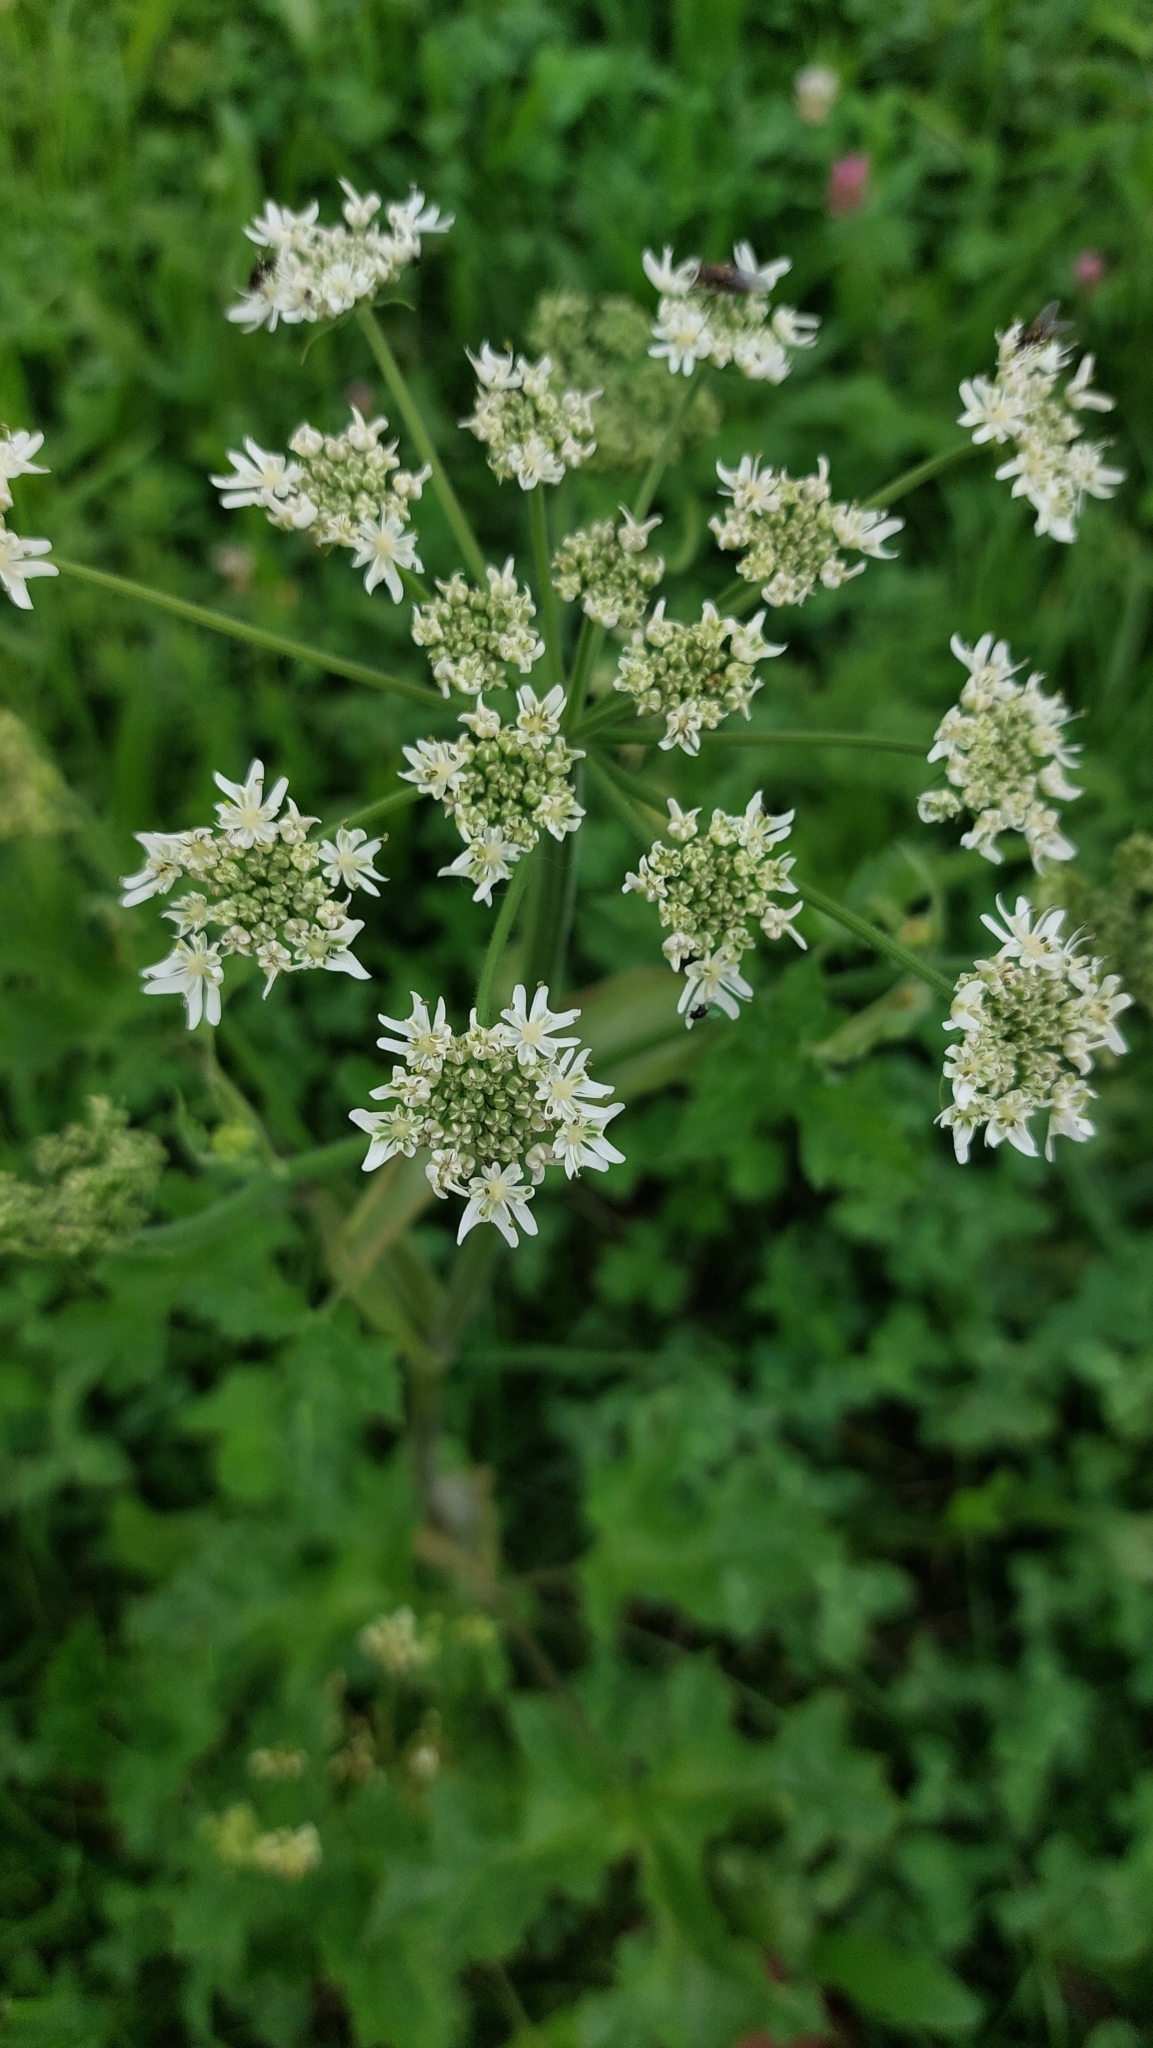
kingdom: Plantae
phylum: Tracheophyta
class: Magnoliopsida
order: Apiales
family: Apiaceae
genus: Heracleum
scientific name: Heracleum sphondylium
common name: Hogweed
